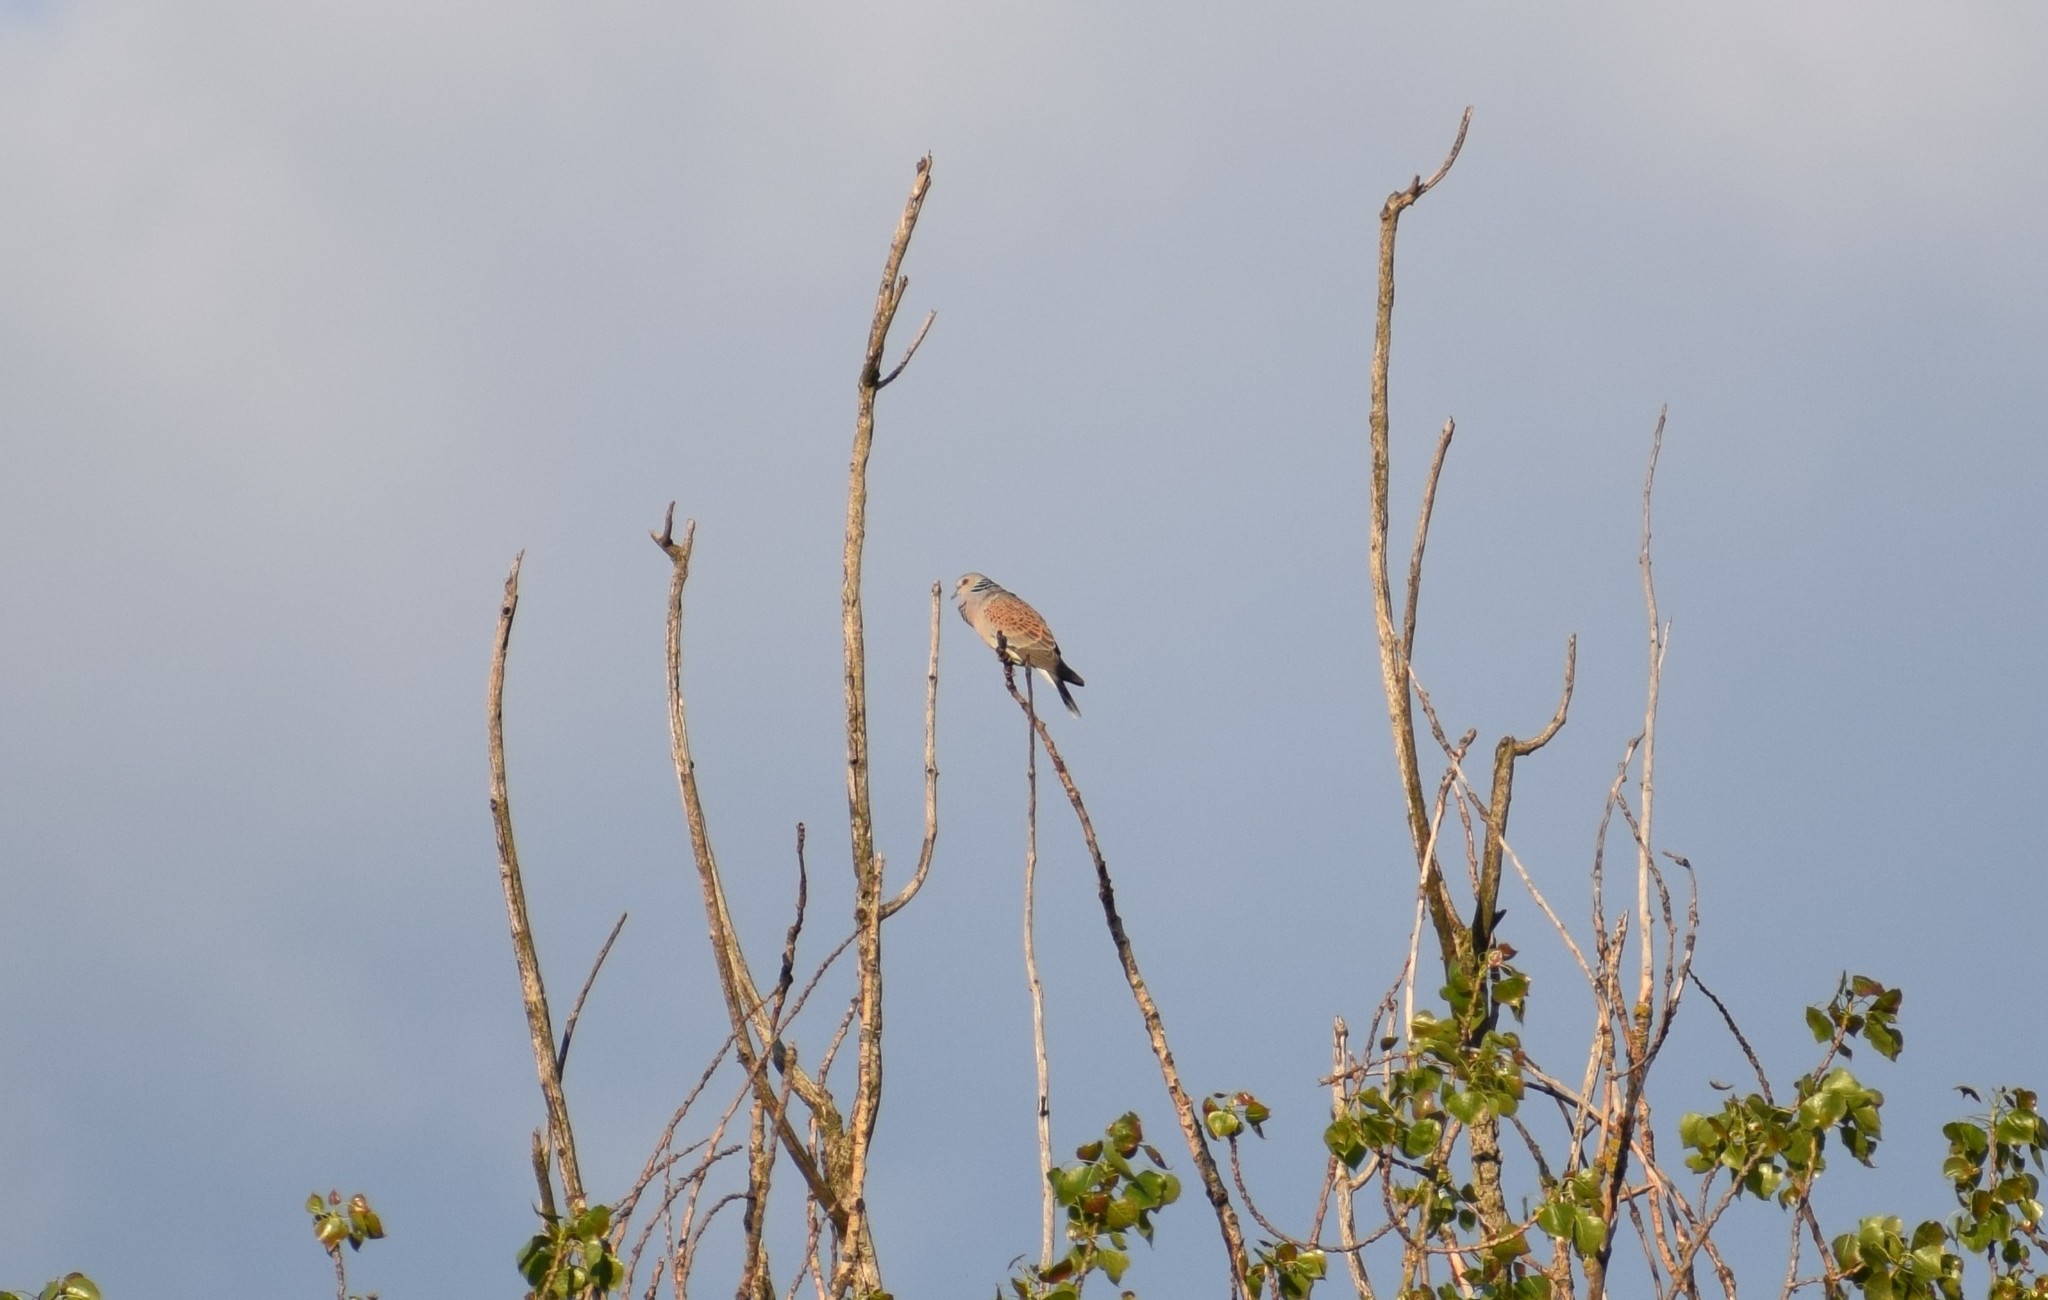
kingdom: Animalia
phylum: Chordata
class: Aves
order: Columbiformes
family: Columbidae
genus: Streptopelia
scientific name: Streptopelia turtur
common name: European turtle dove
